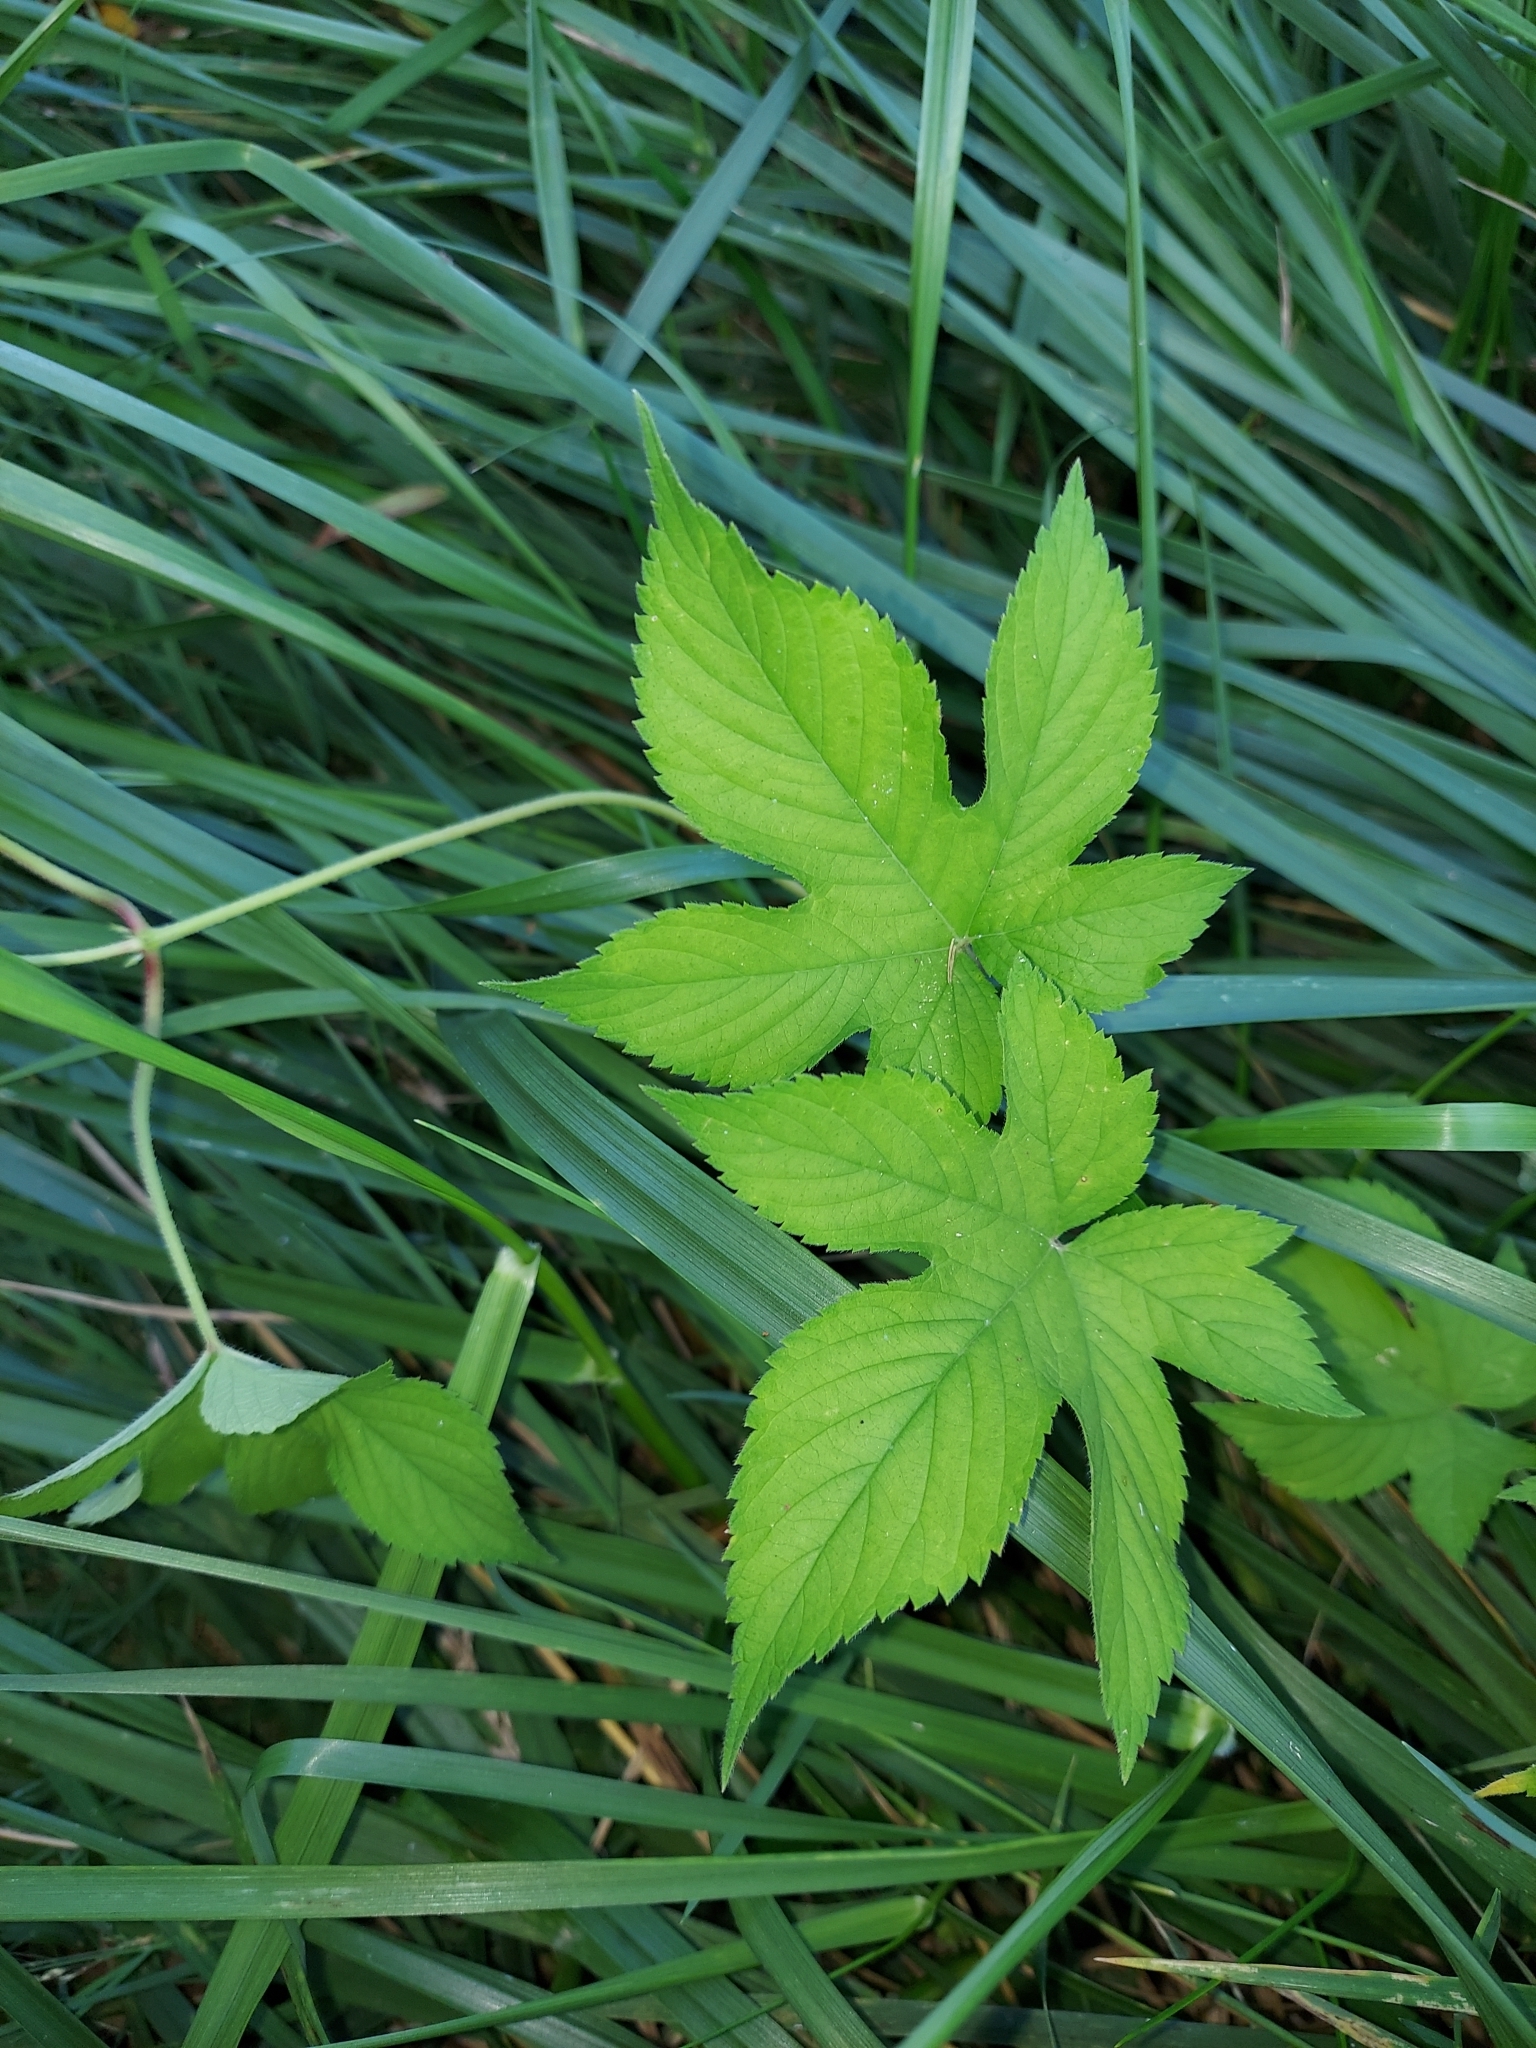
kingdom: Plantae
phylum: Tracheophyta
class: Magnoliopsida
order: Rosales
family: Cannabaceae
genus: Humulus
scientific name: Humulus scandens
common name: Japanese hop
